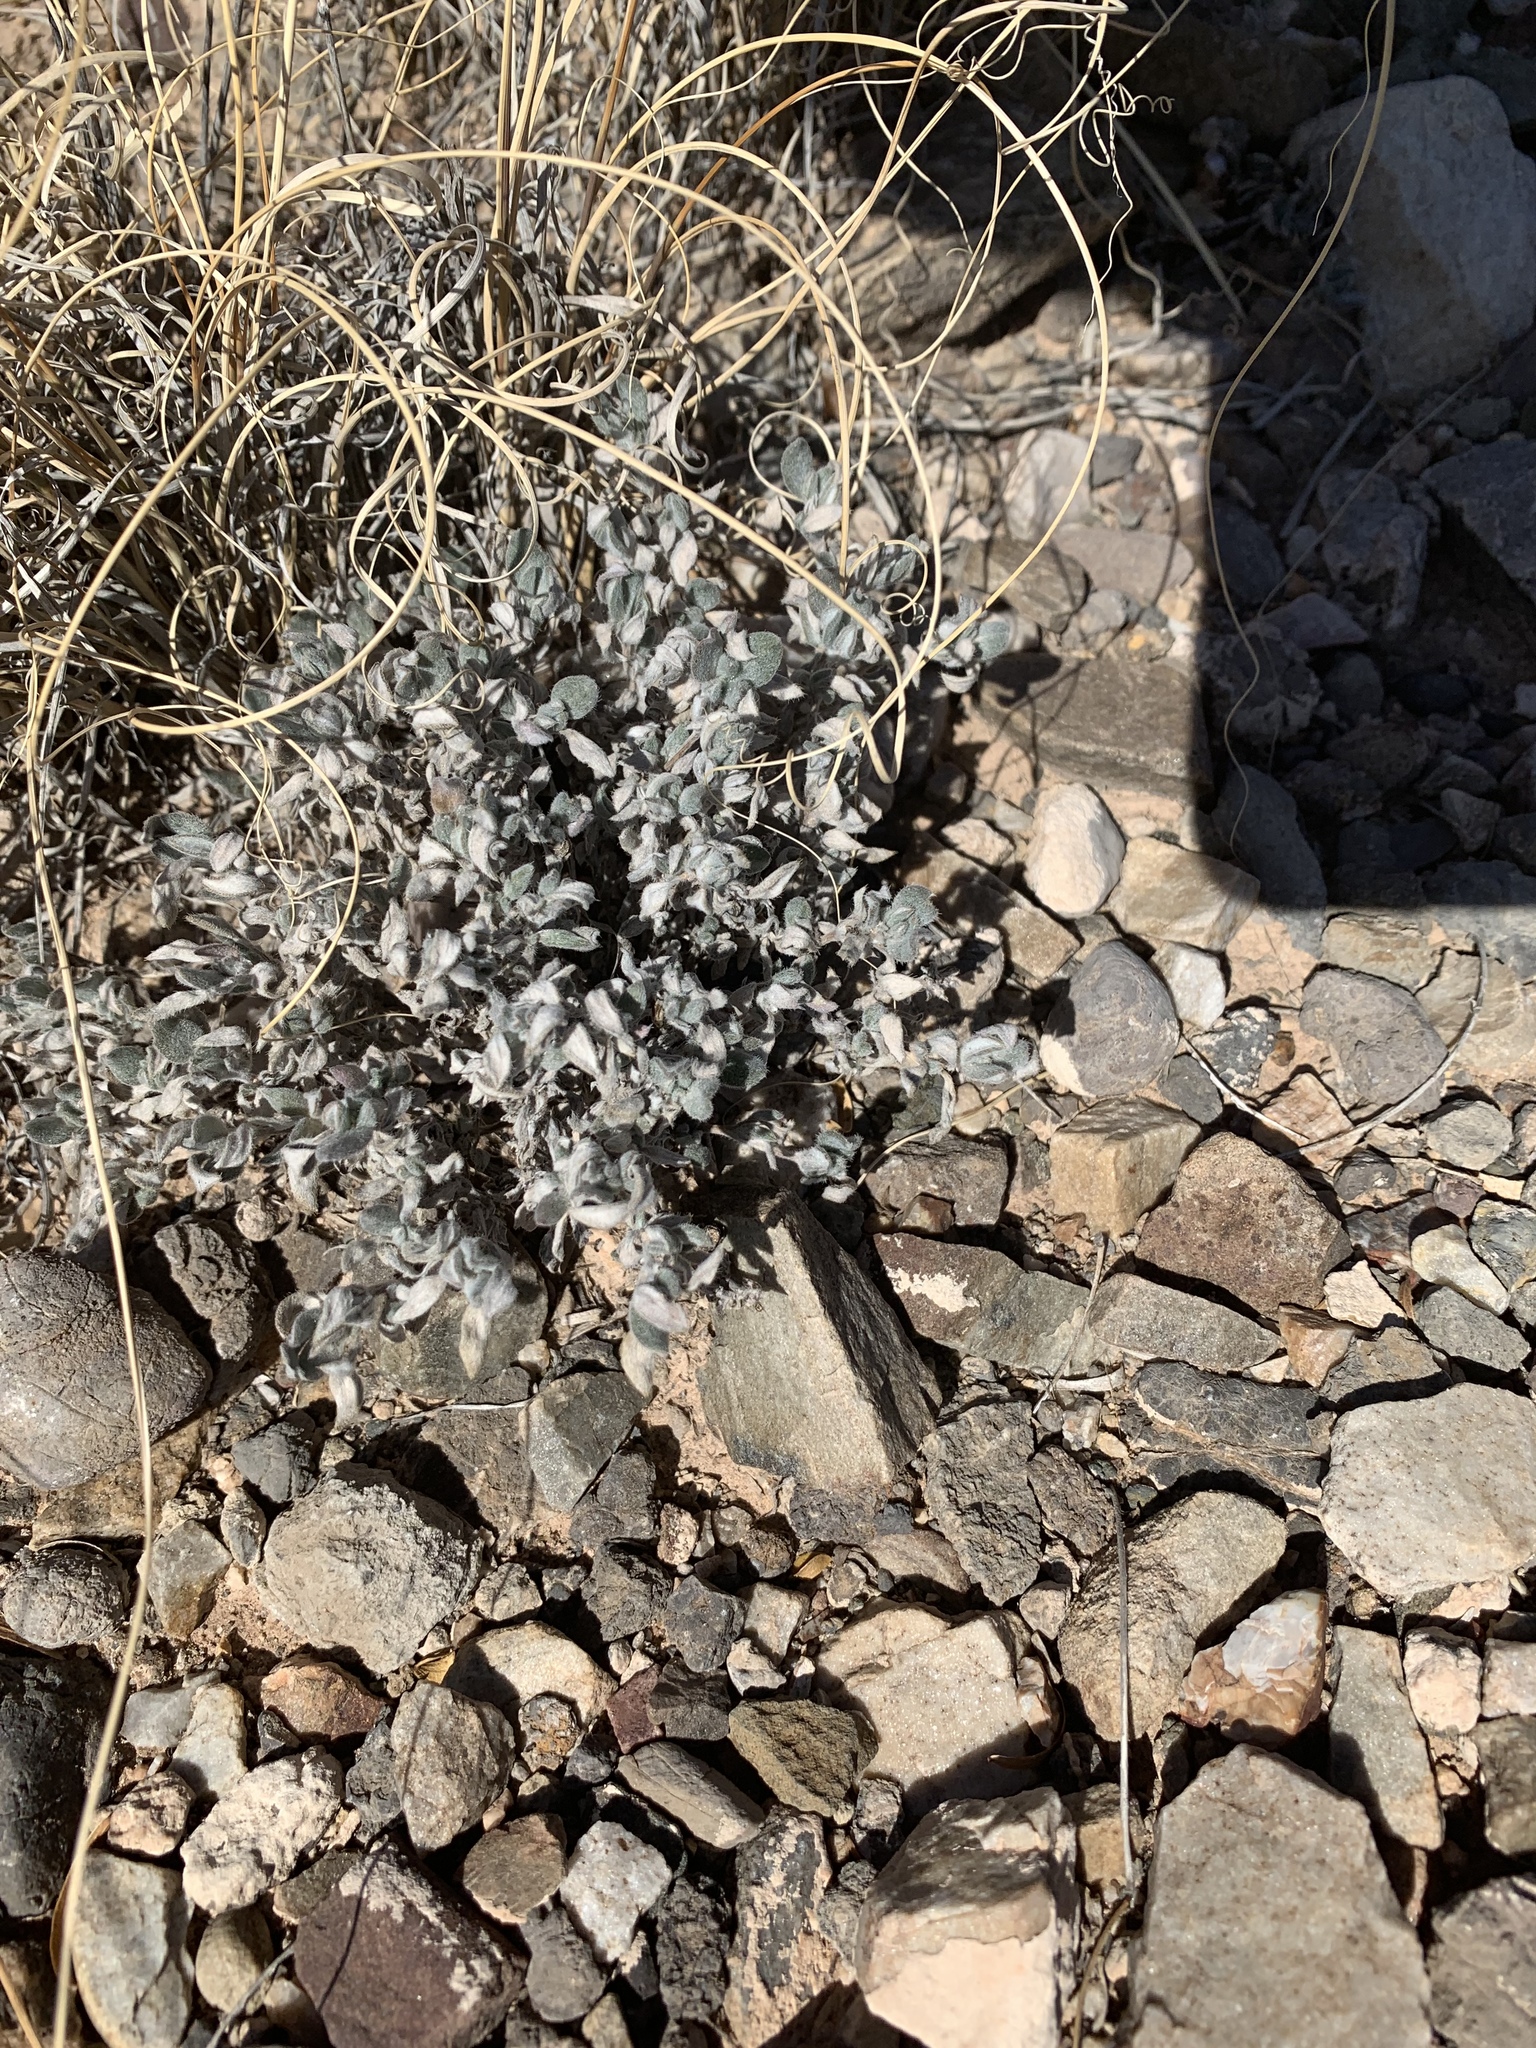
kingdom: Plantae
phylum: Tracheophyta
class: Magnoliopsida
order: Boraginales
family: Ehretiaceae
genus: Tiquilia
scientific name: Tiquilia canescens
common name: Hairy tiquilia
